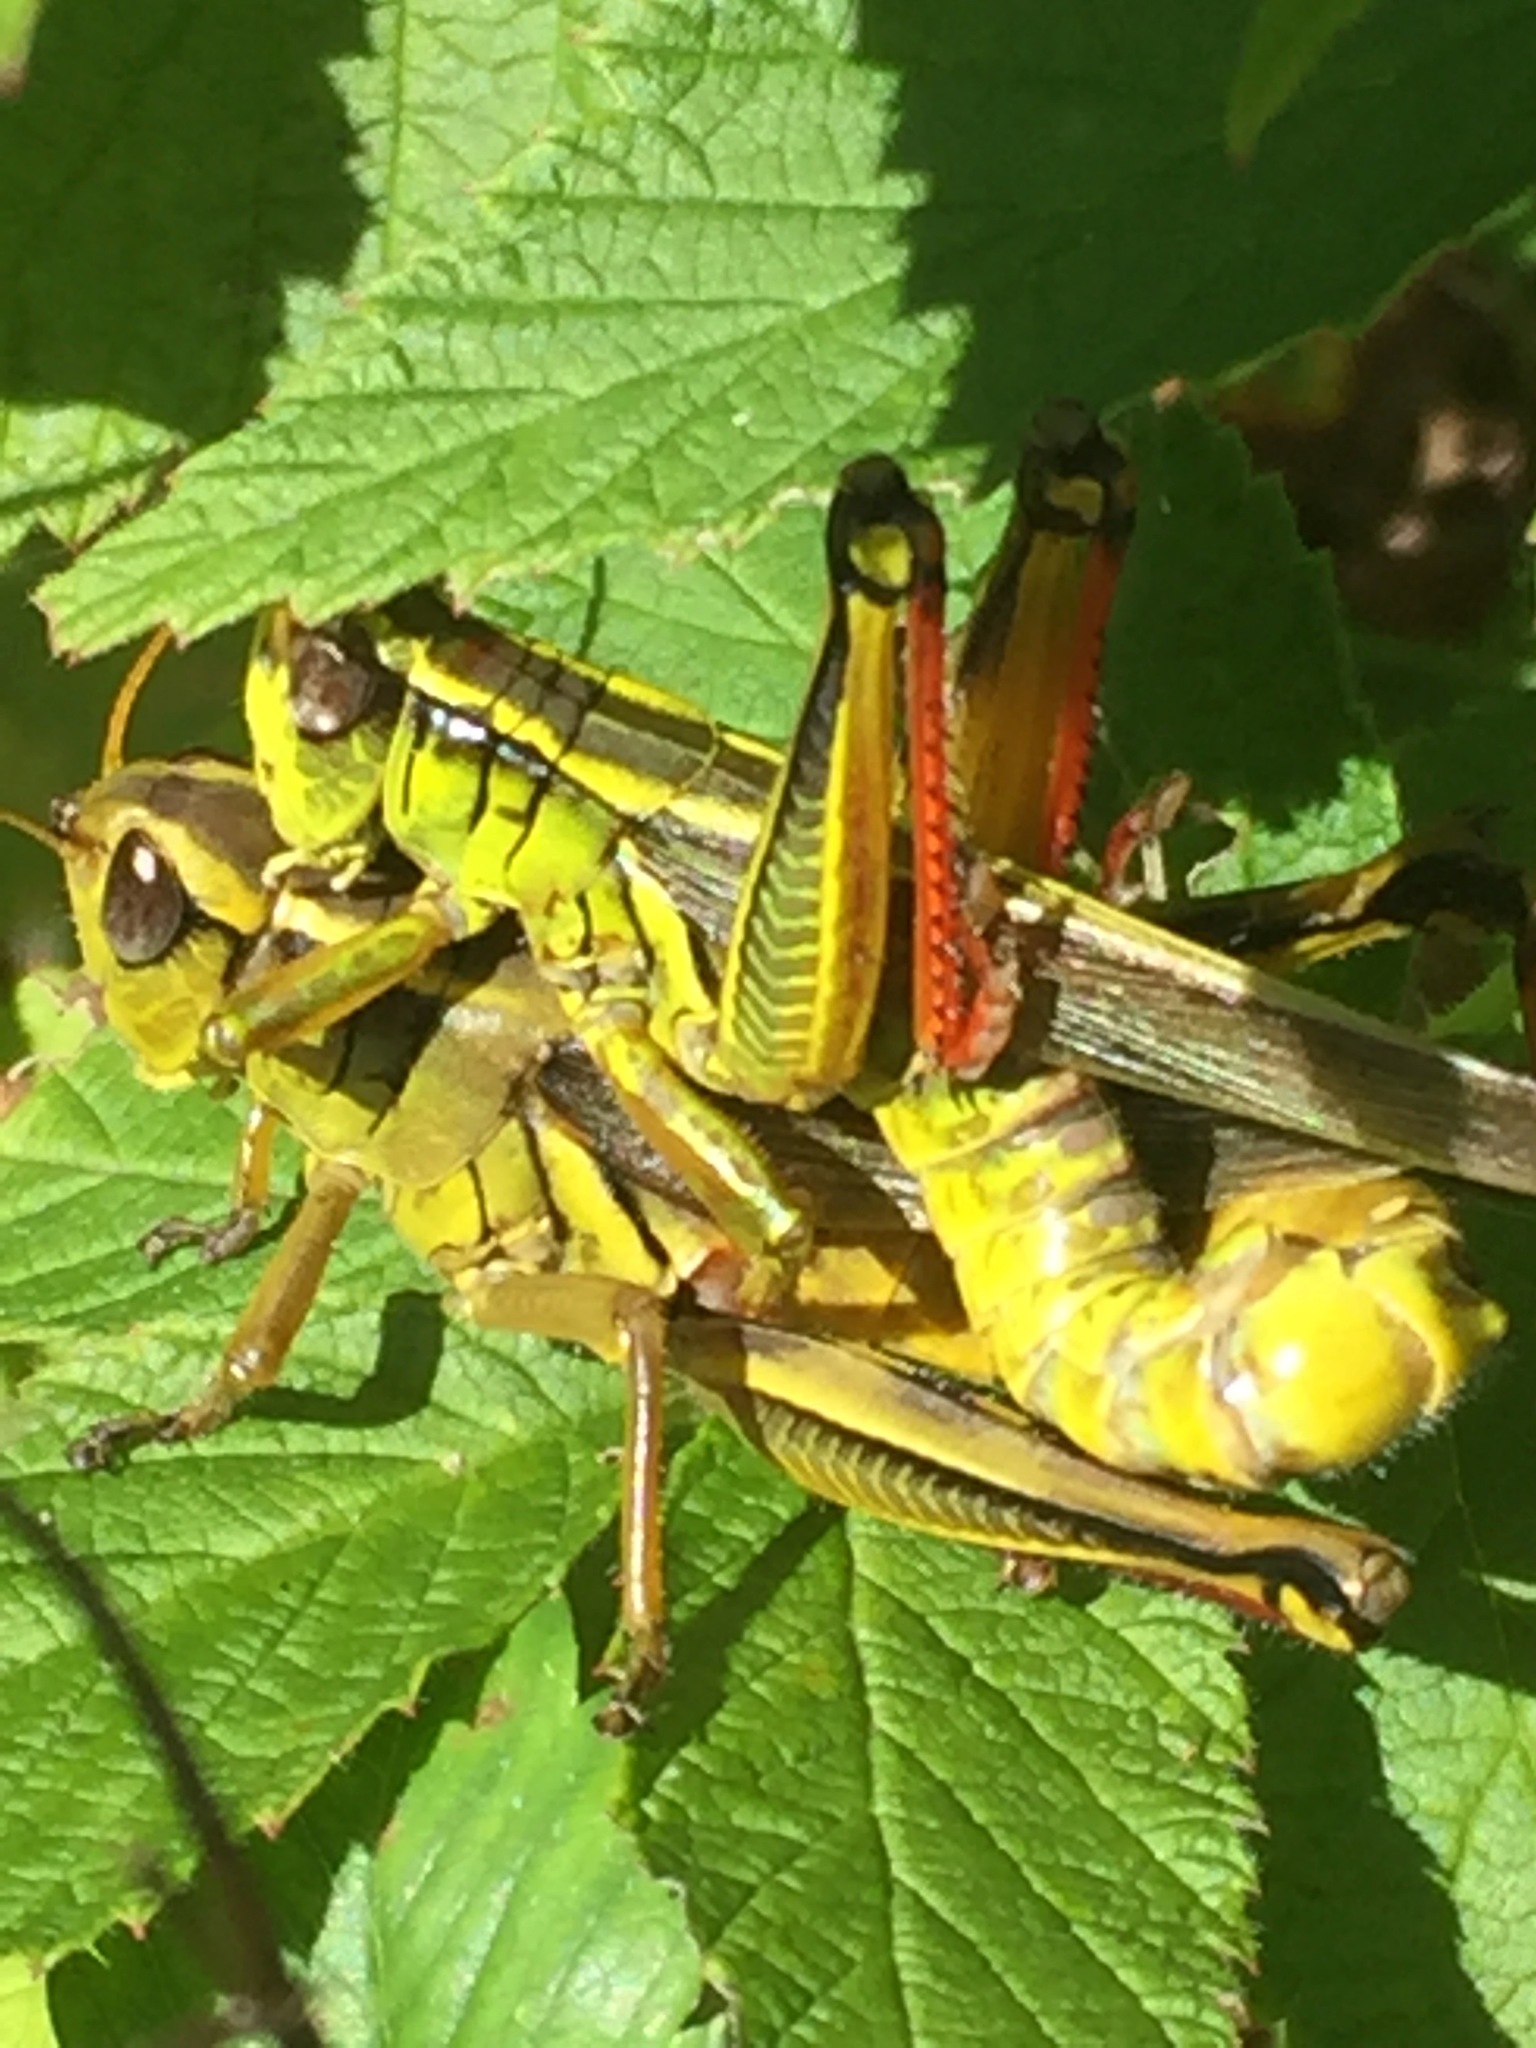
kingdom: Animalia
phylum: Arthropoda
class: Insecta
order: Orthoptera
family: Acrididae
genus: Melanoplus
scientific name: Melanoplus bivittatus
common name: Two-striped grasshopper
